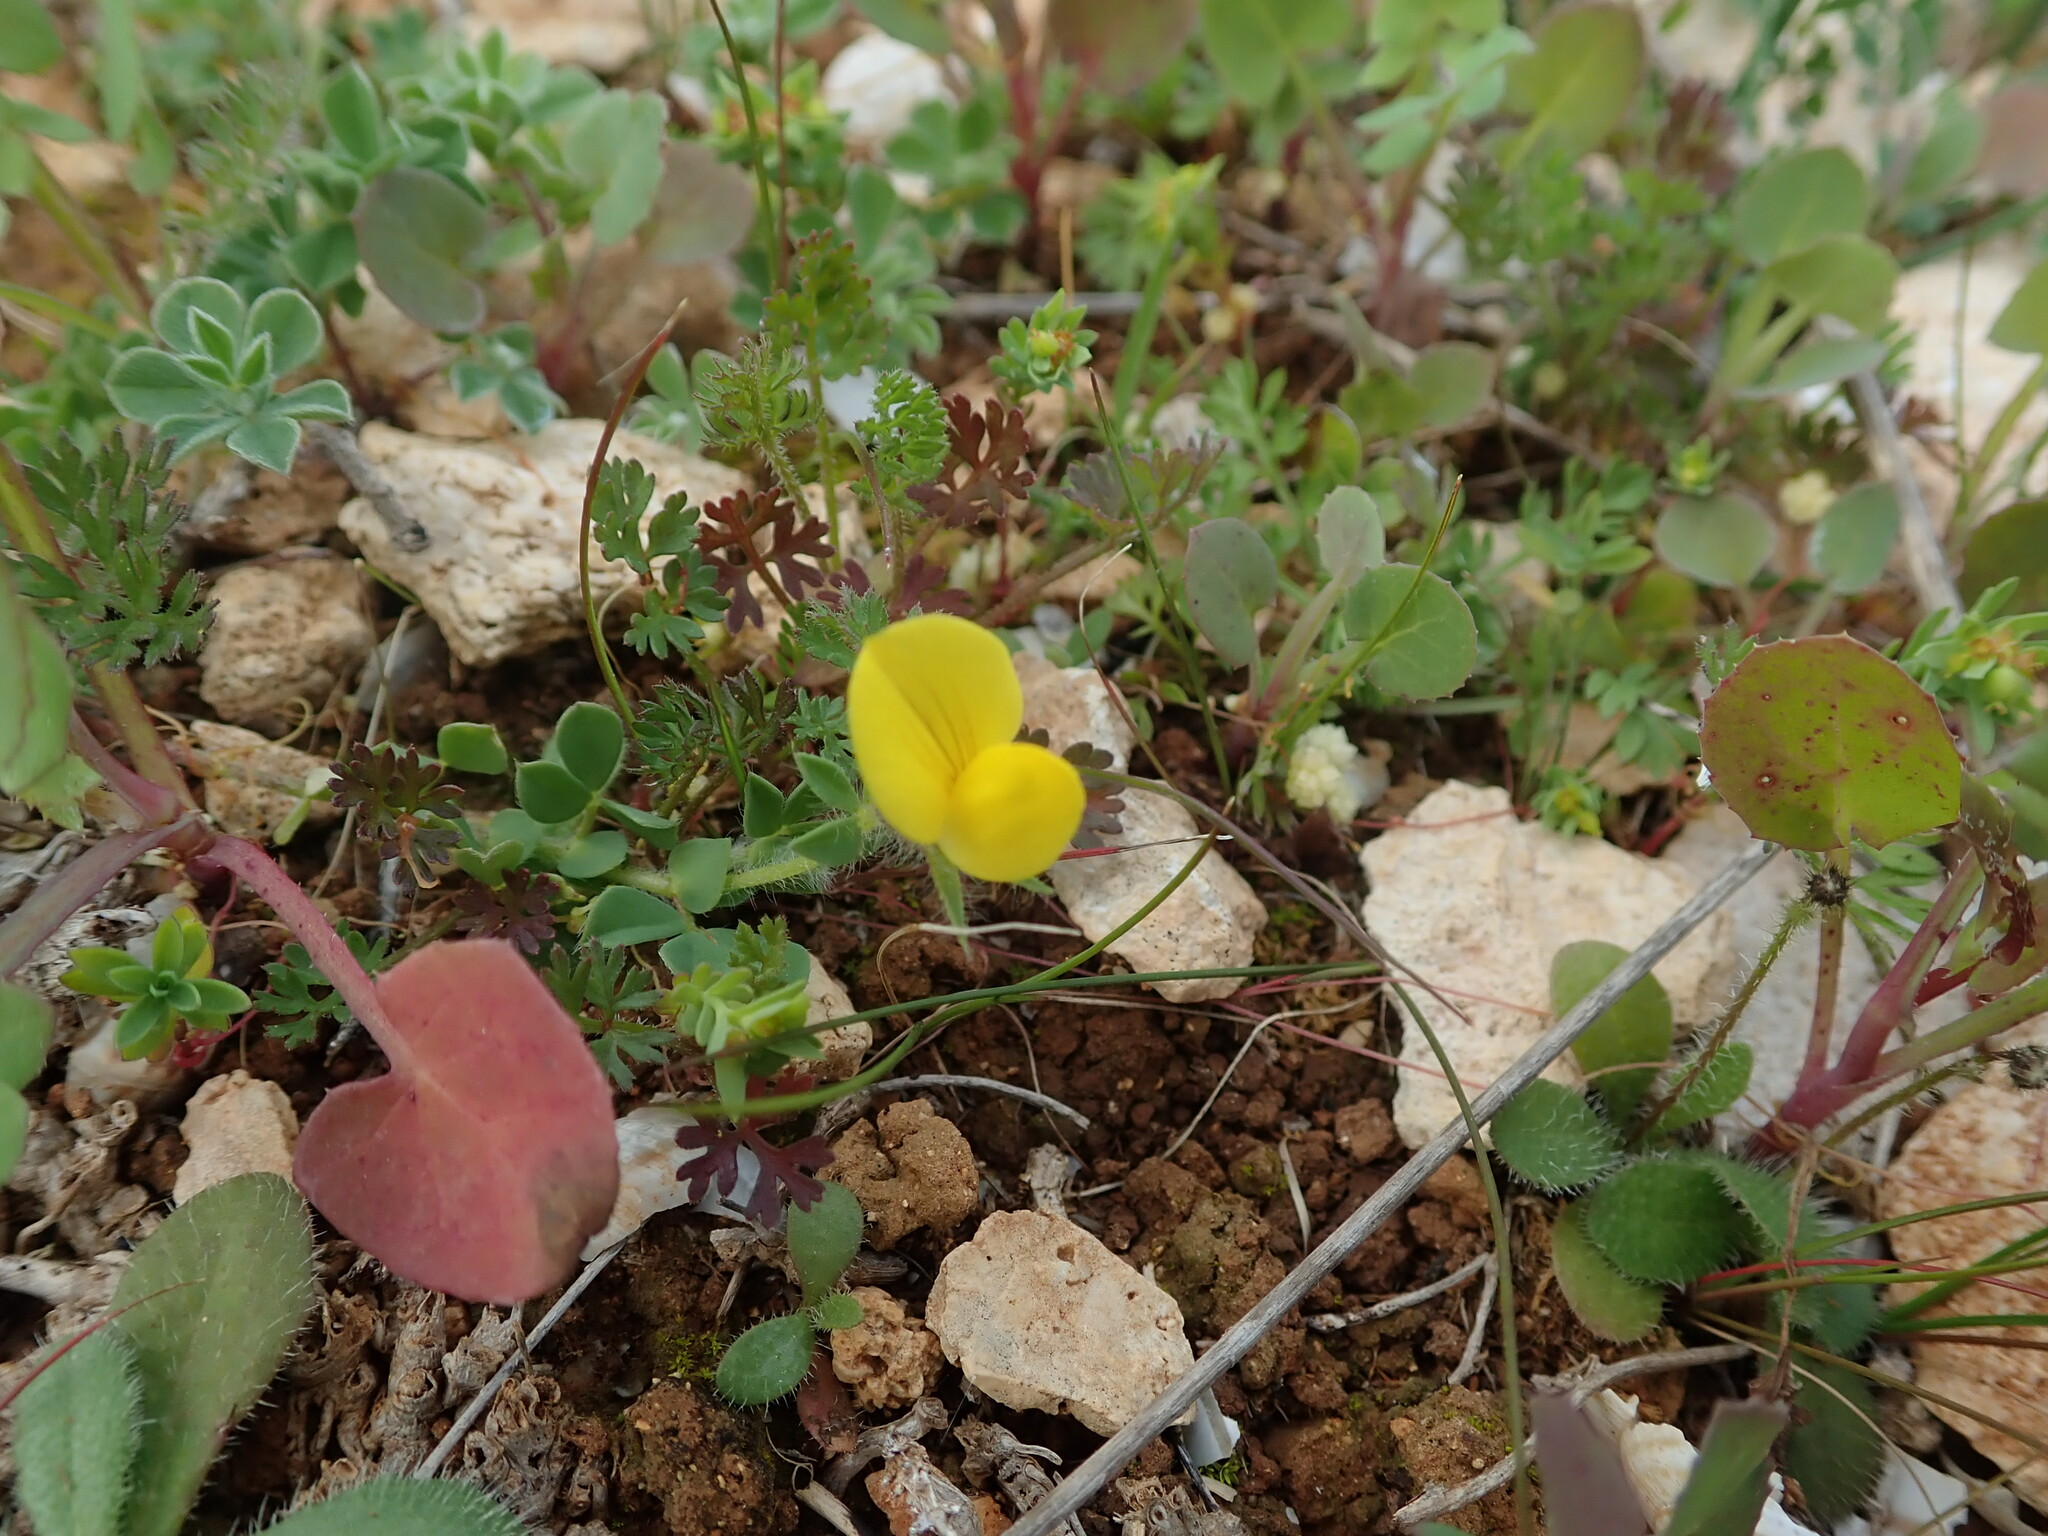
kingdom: Plantae
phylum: Tracheophyta
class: Magnoliopsida
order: Fabales
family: Fabaceae
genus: Lotus
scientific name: Lotus edulis
